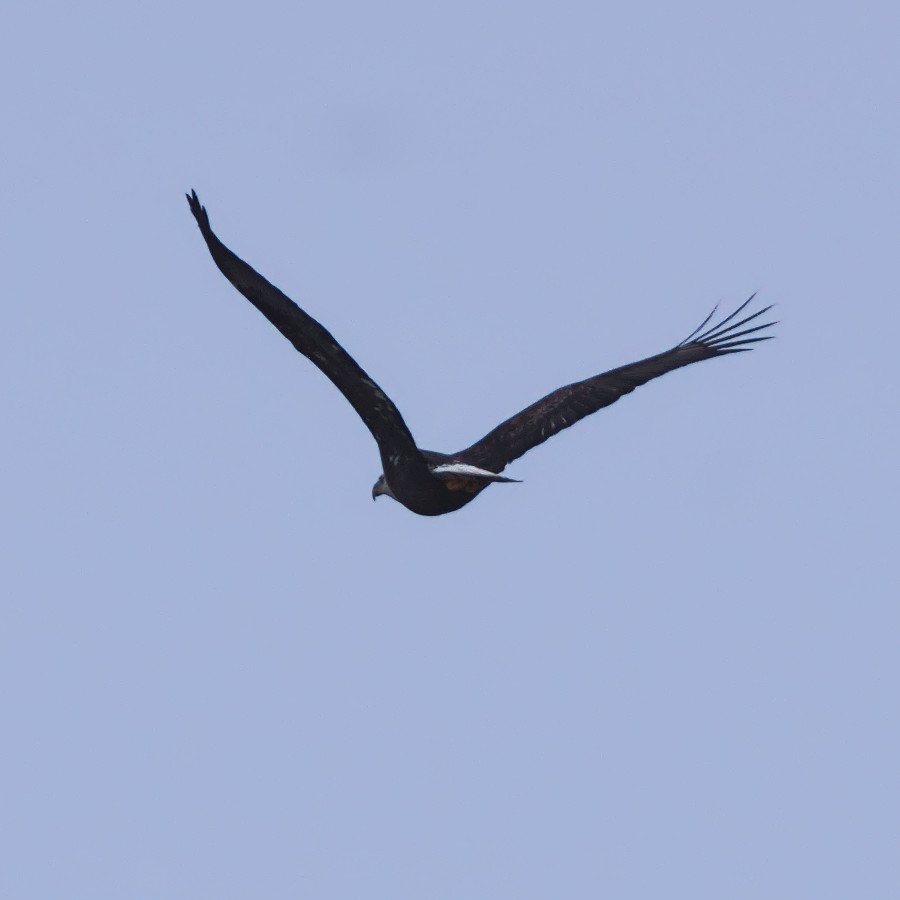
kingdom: Animalia
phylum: Chordata
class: Aves
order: Accipitriformes
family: Accipitridae
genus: Haliaeetus
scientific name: Haliaeetus leucocephalus
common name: Bald eagle
